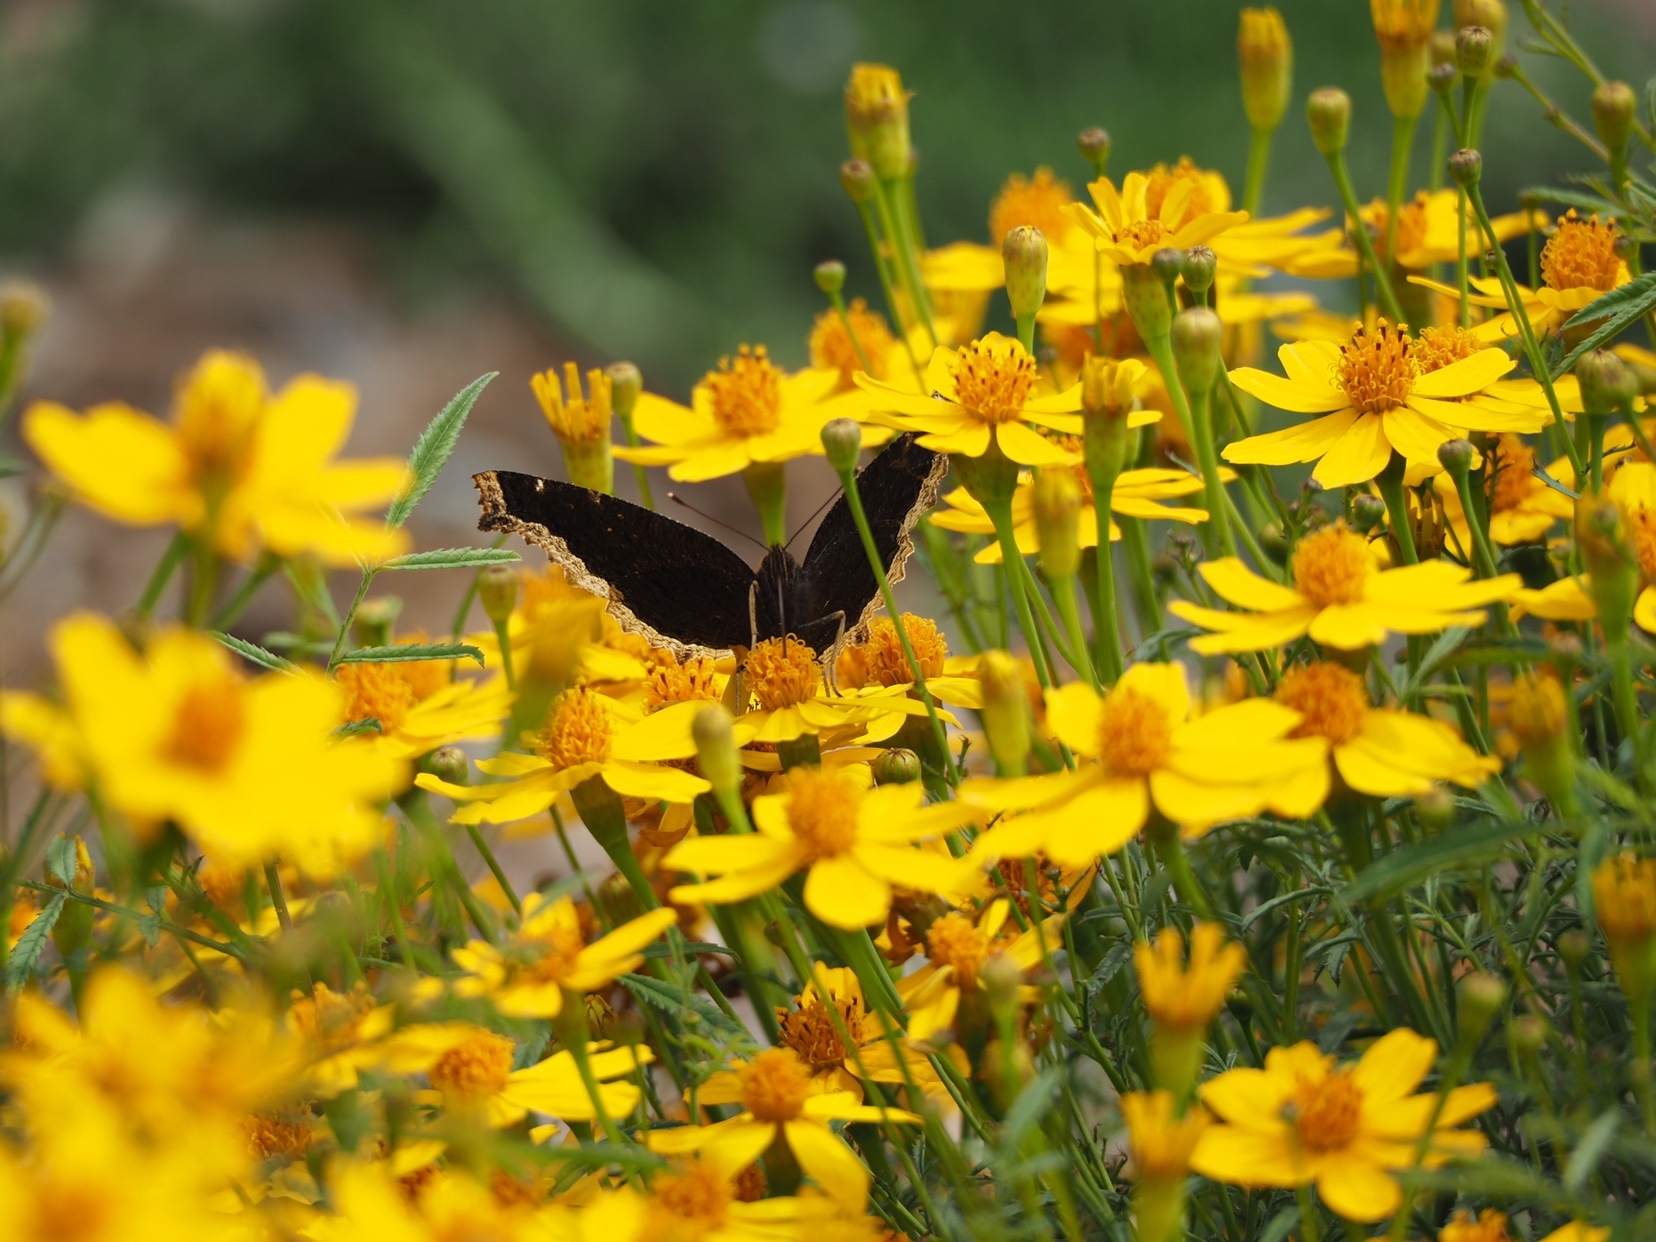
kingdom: Animalia
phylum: Arthropoda
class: Insecta
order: Lepidoptera
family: Nymphalidae
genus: Nymphalis
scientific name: Nymphalis antiopa
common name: Camberwell beauty
